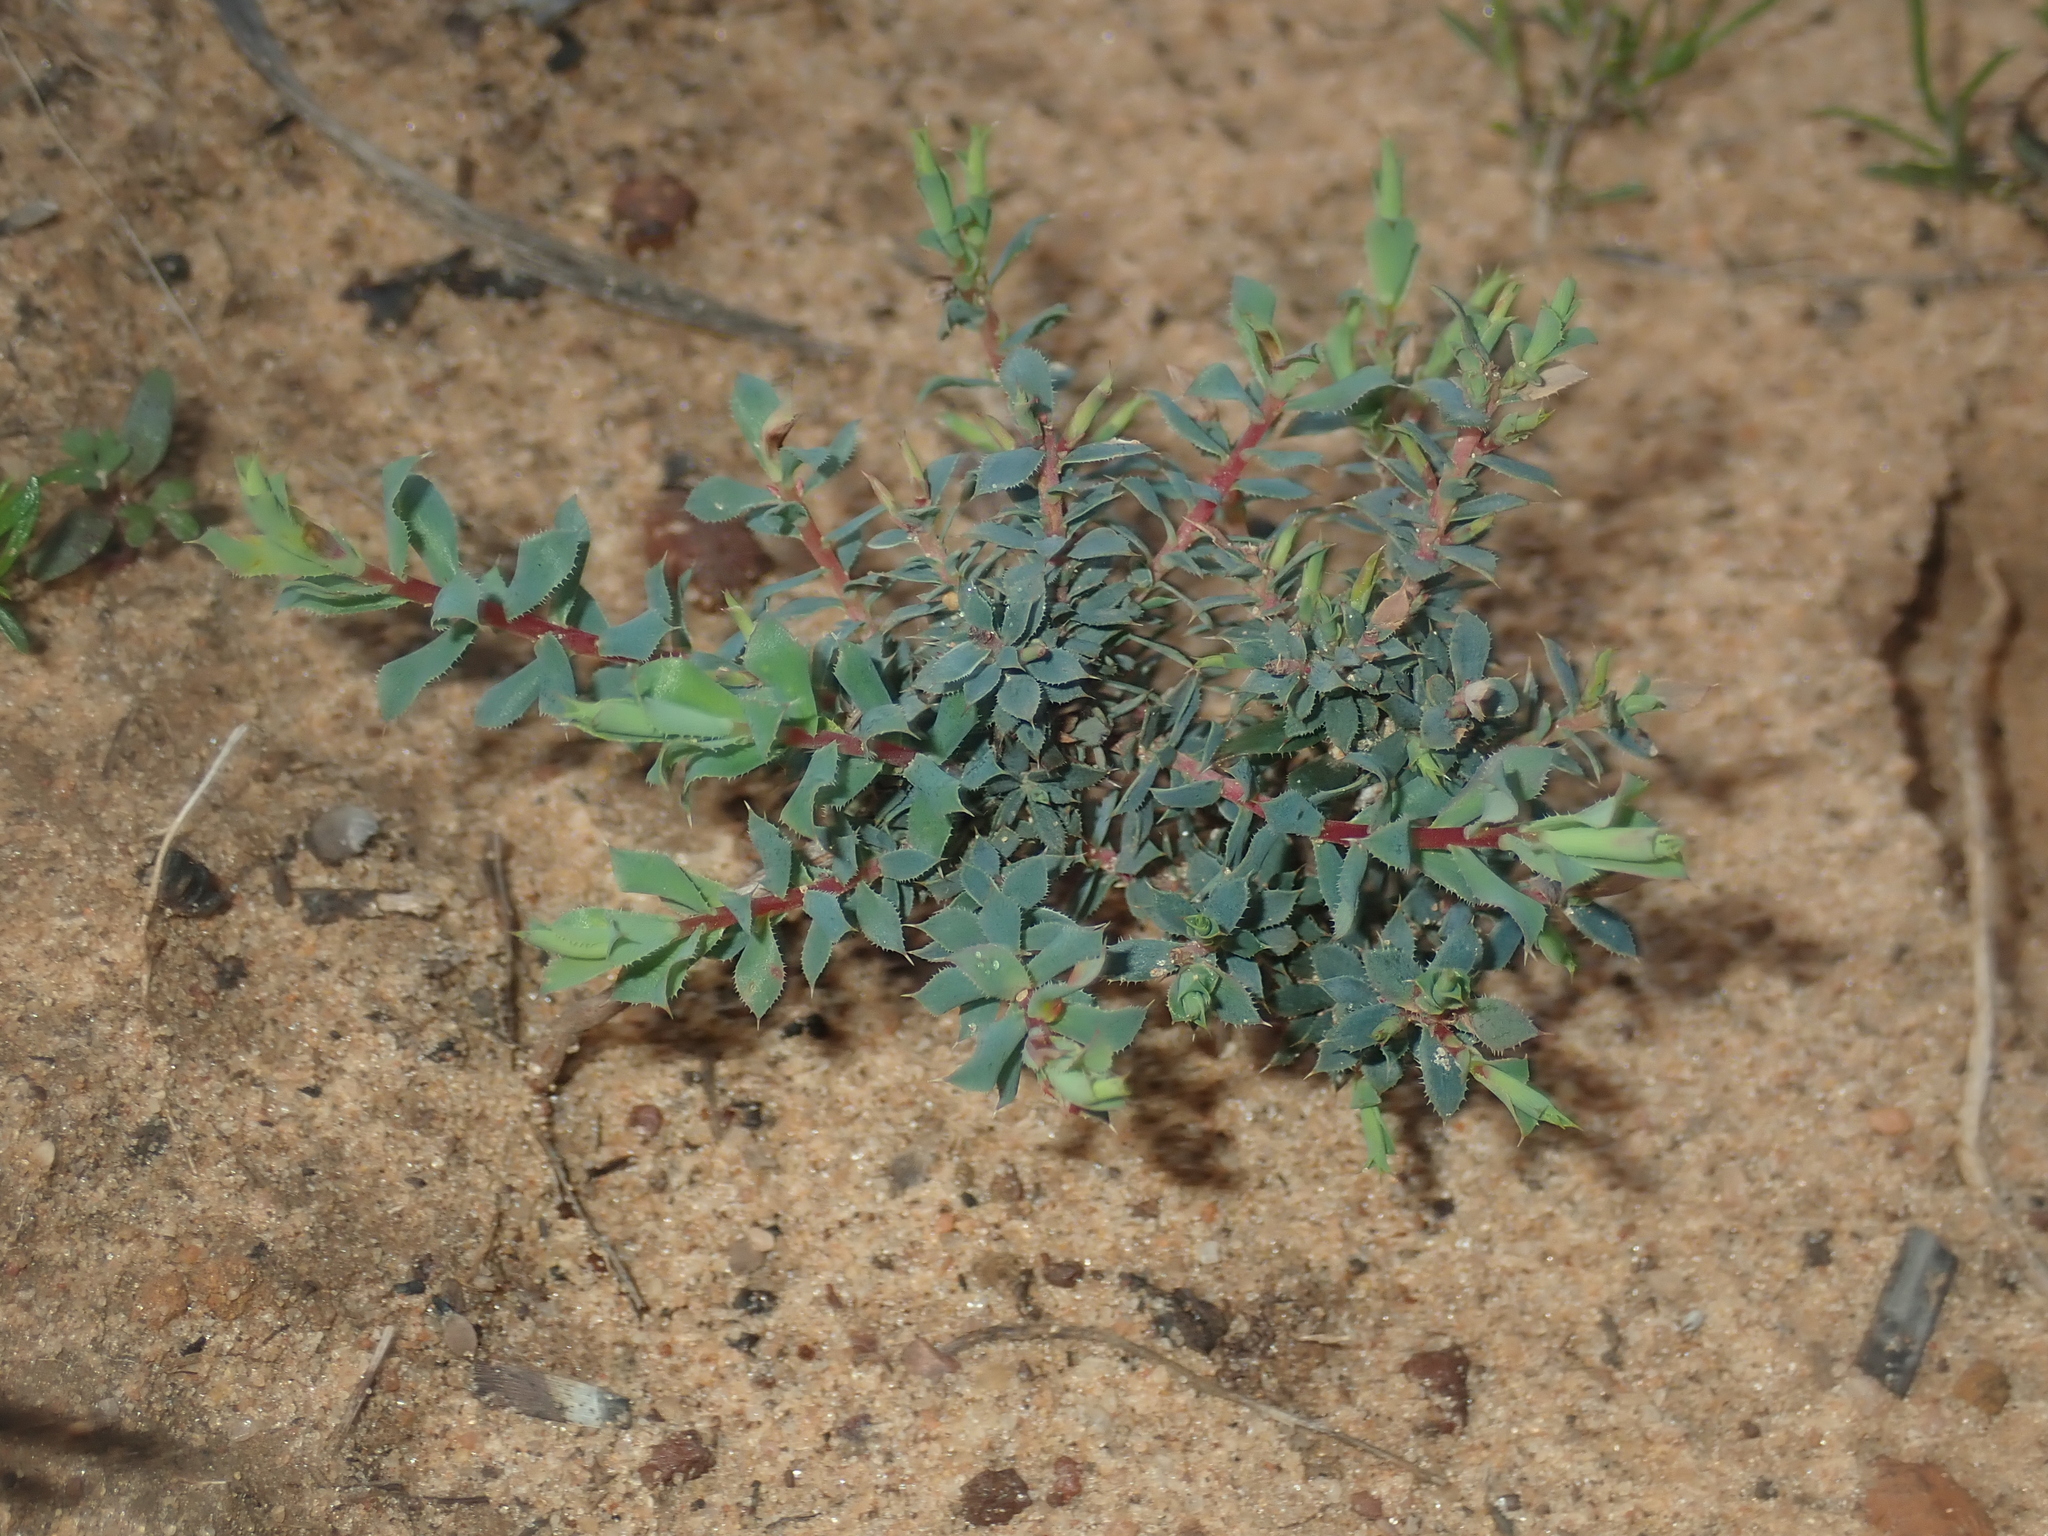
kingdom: Plantae
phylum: Tracheophyta
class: Magnoliopsida
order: Ericales
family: Ericaceae
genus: Styphelia
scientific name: Styphelia serratifolia
